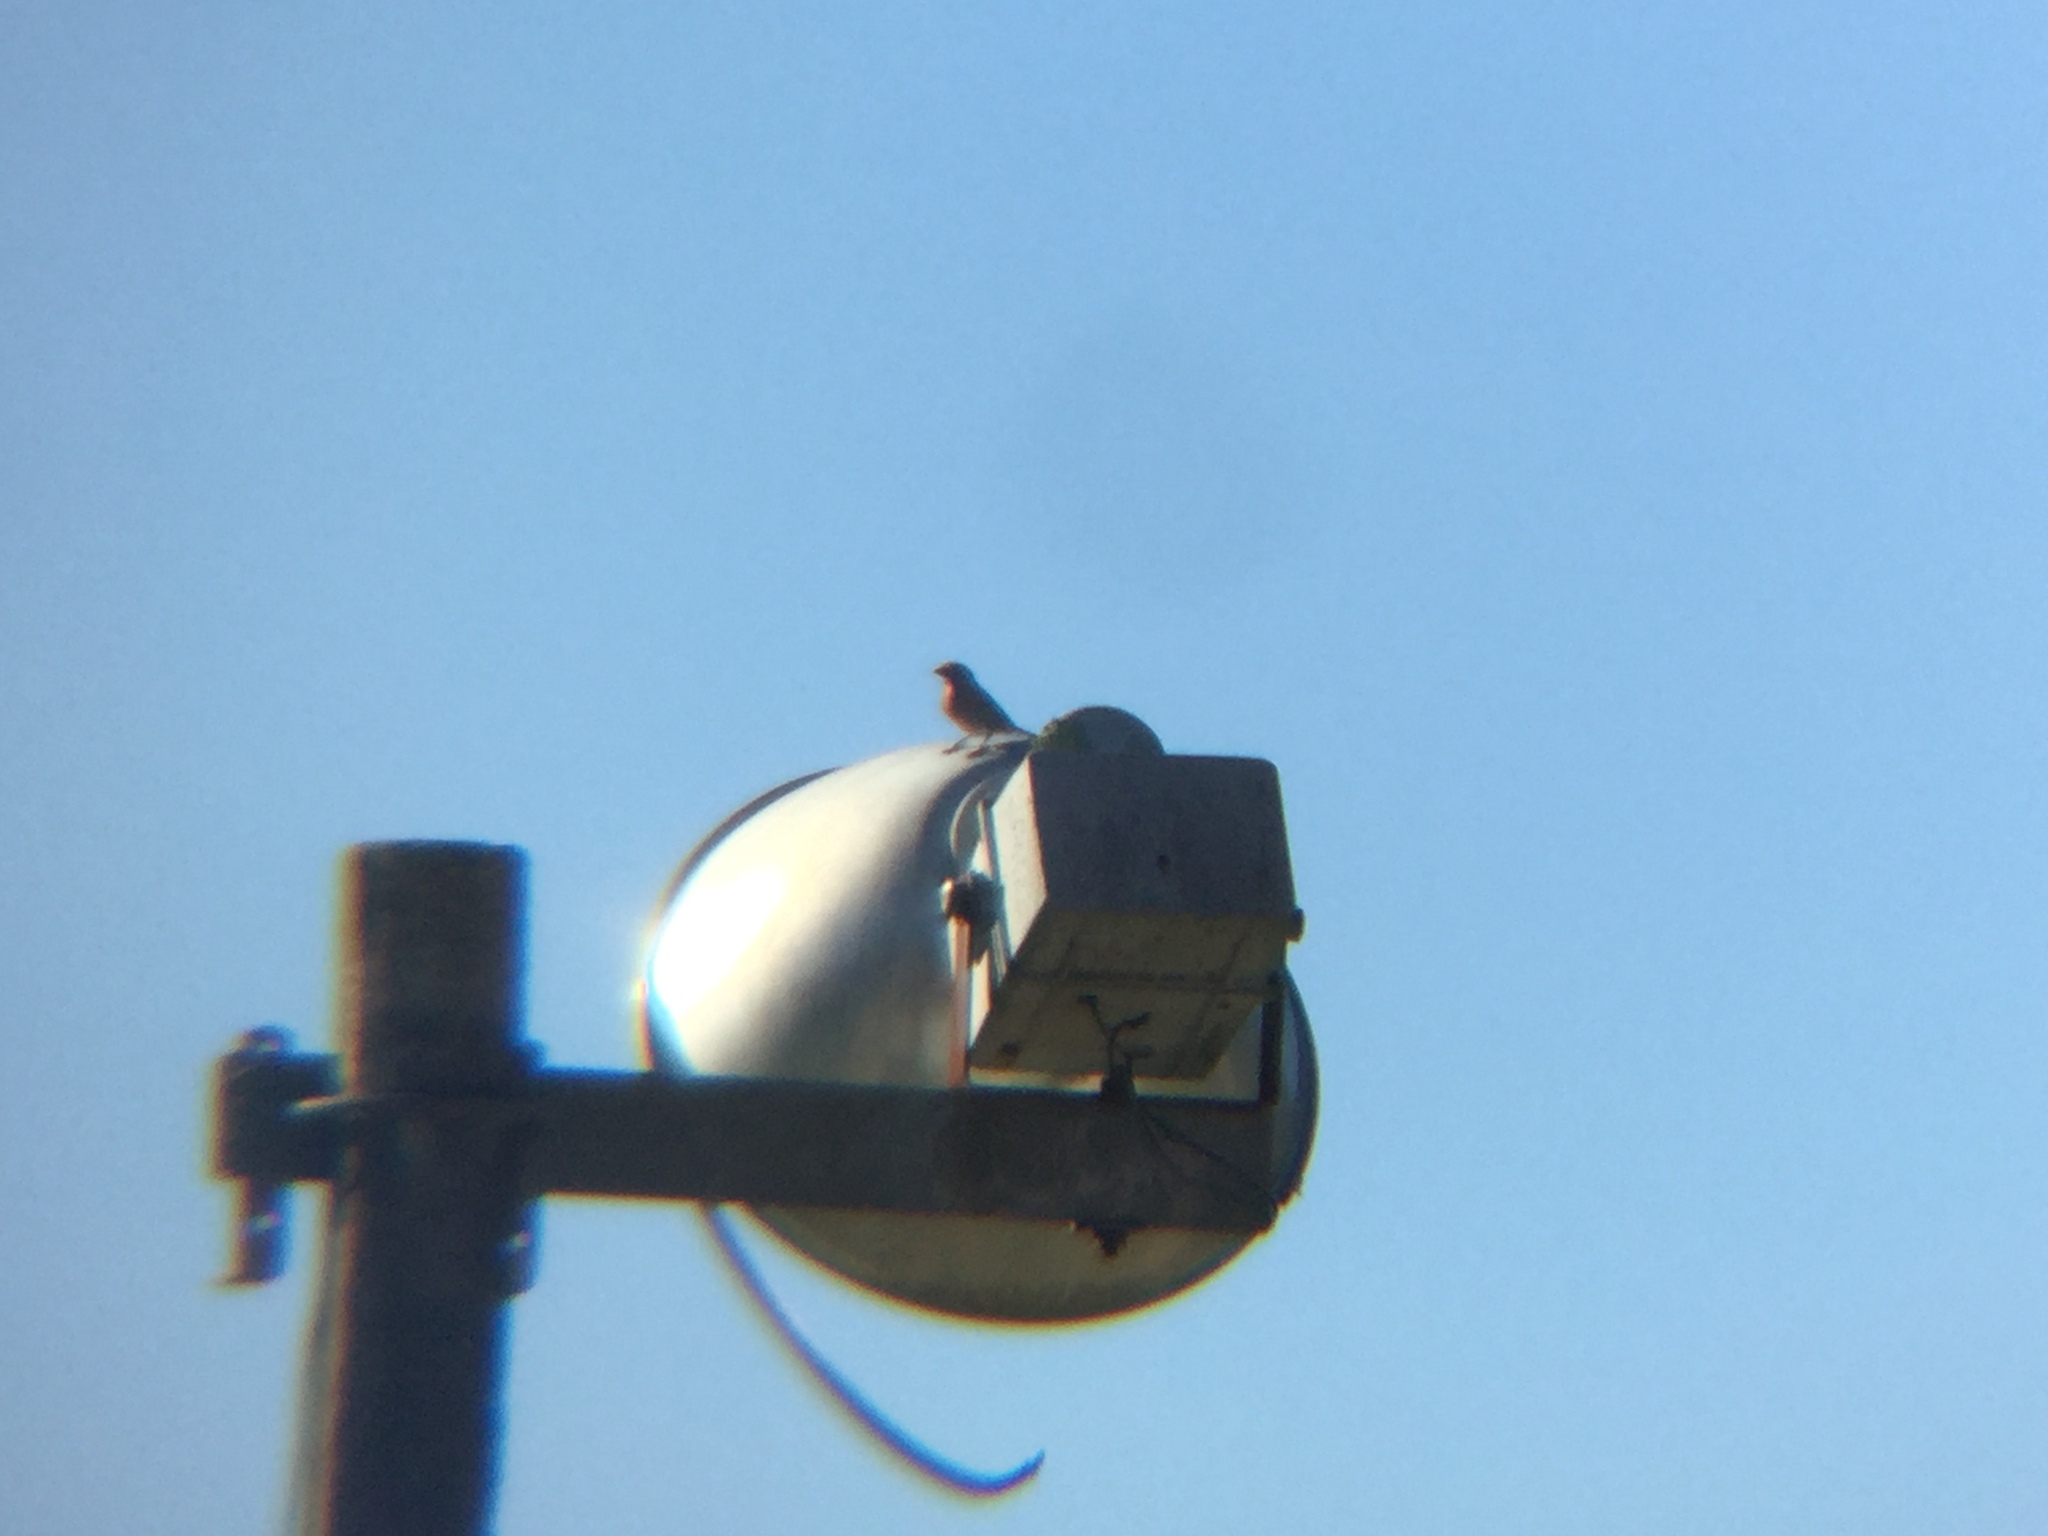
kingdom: Animalia
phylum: Chordata
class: Aves
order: Passeriformes
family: Fringillidae
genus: Haemorhous
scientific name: Haemorhous mexicanus
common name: House finch
